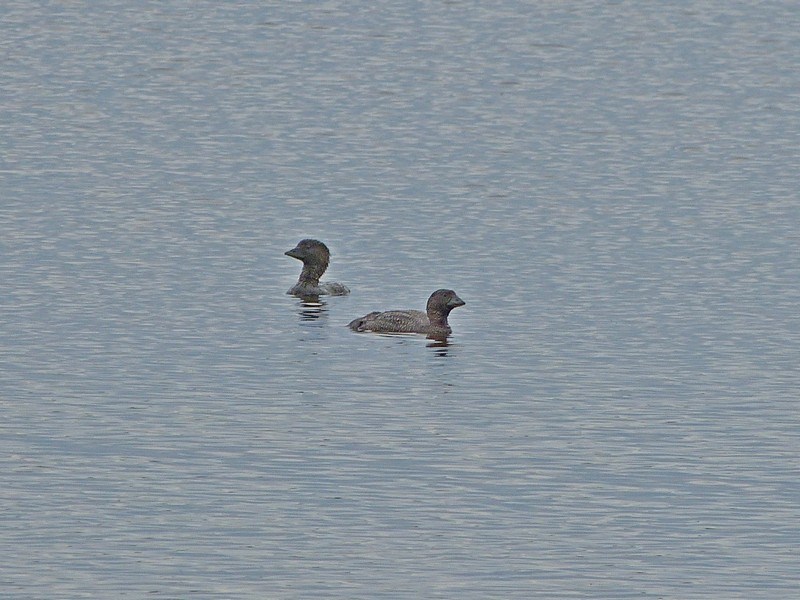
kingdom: Animalia
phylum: Chordata
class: Aves
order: Anseriformes
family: Anatidae
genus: Biziura
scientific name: Biziura lobata
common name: Musk duck
